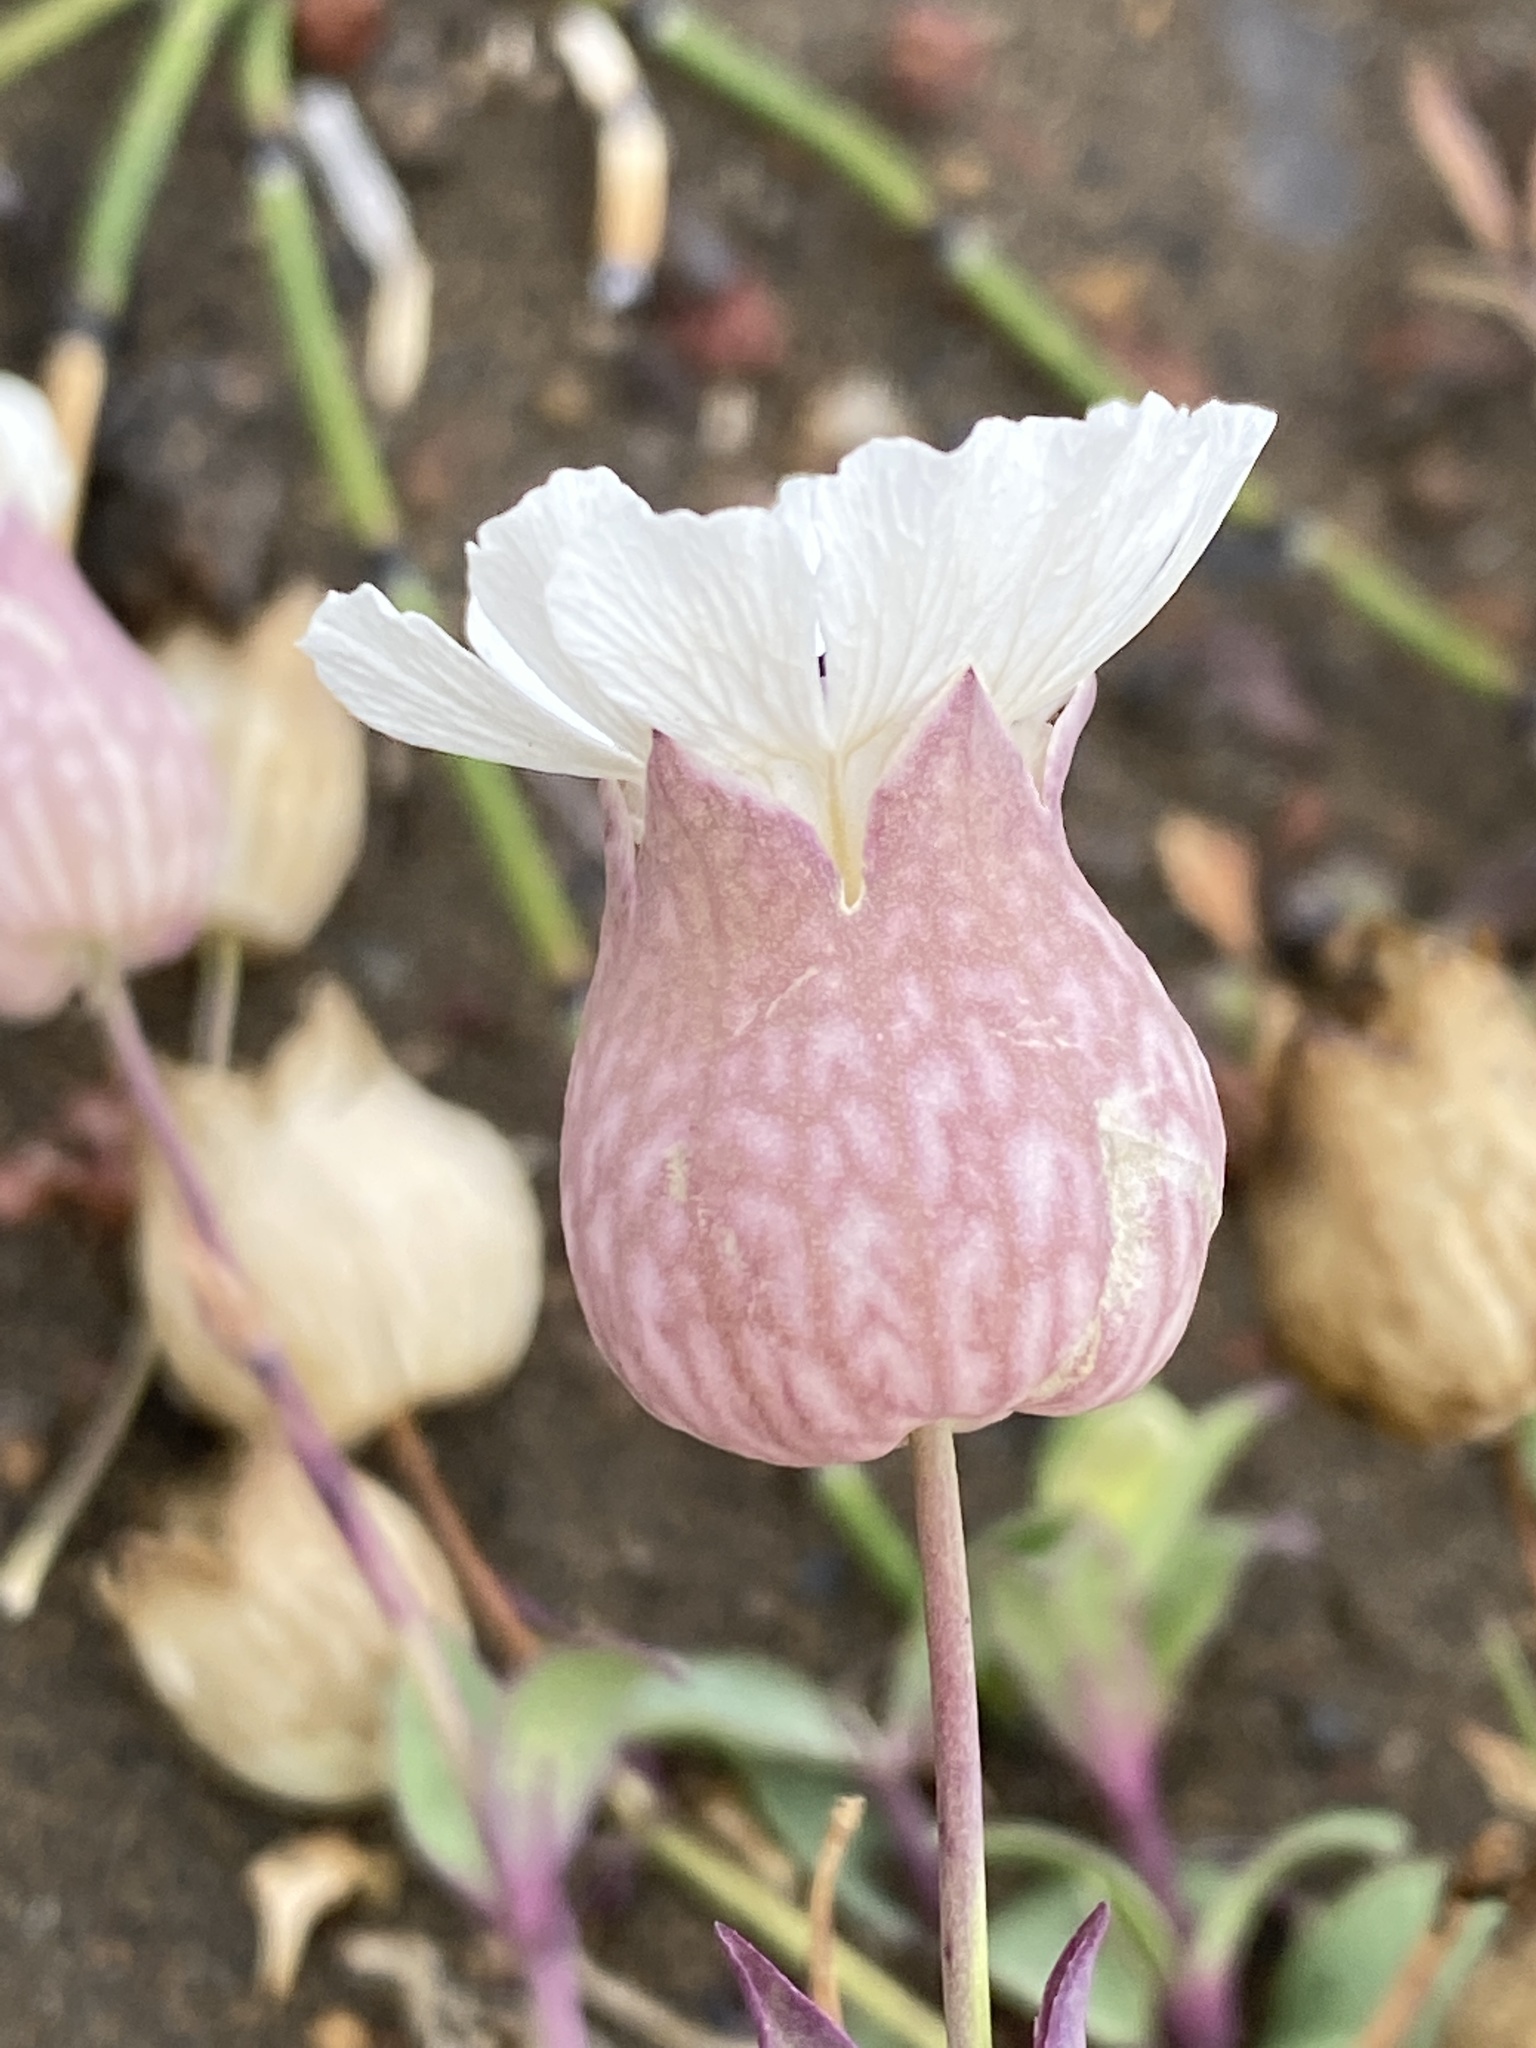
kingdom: Plantae
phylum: Tracheophyta
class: Magnoliopsida
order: Caryophyllales
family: Caryophyllaceae
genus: Silene
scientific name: Silene uniflora
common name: Sea campion
